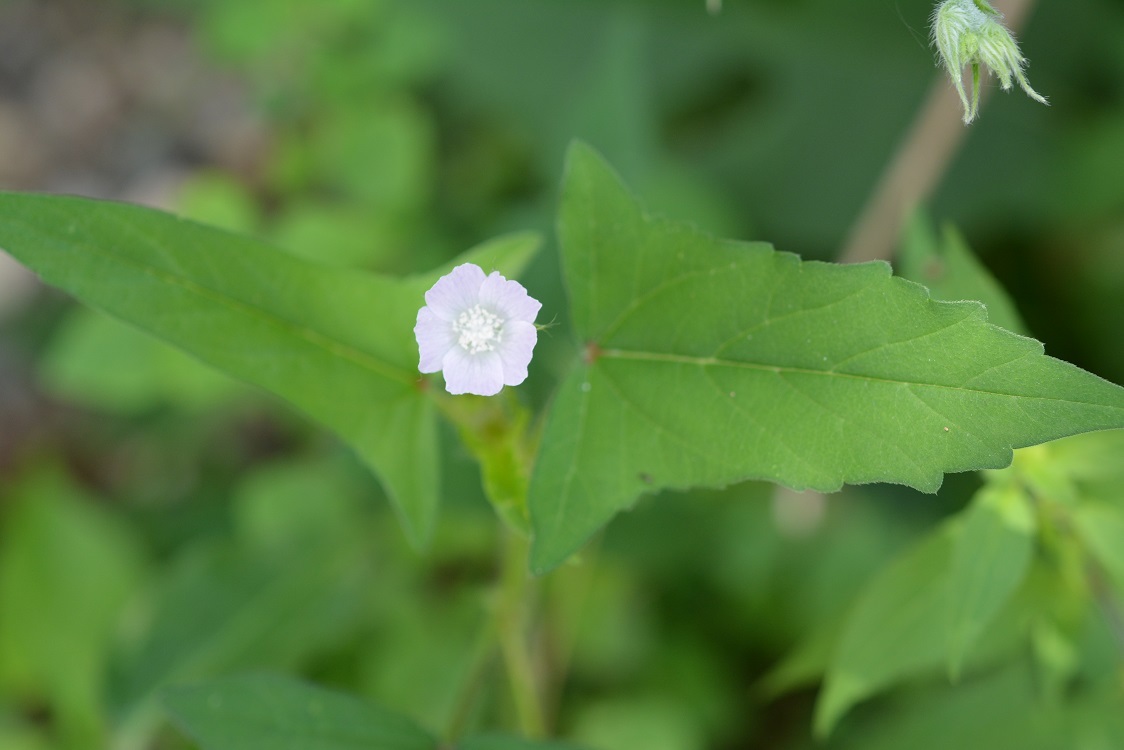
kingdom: Plantae
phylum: Tracheophyta
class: Magnoliopsida
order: Malvales
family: Malvaceae
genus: Anoda
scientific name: Anoda crenatiflora
